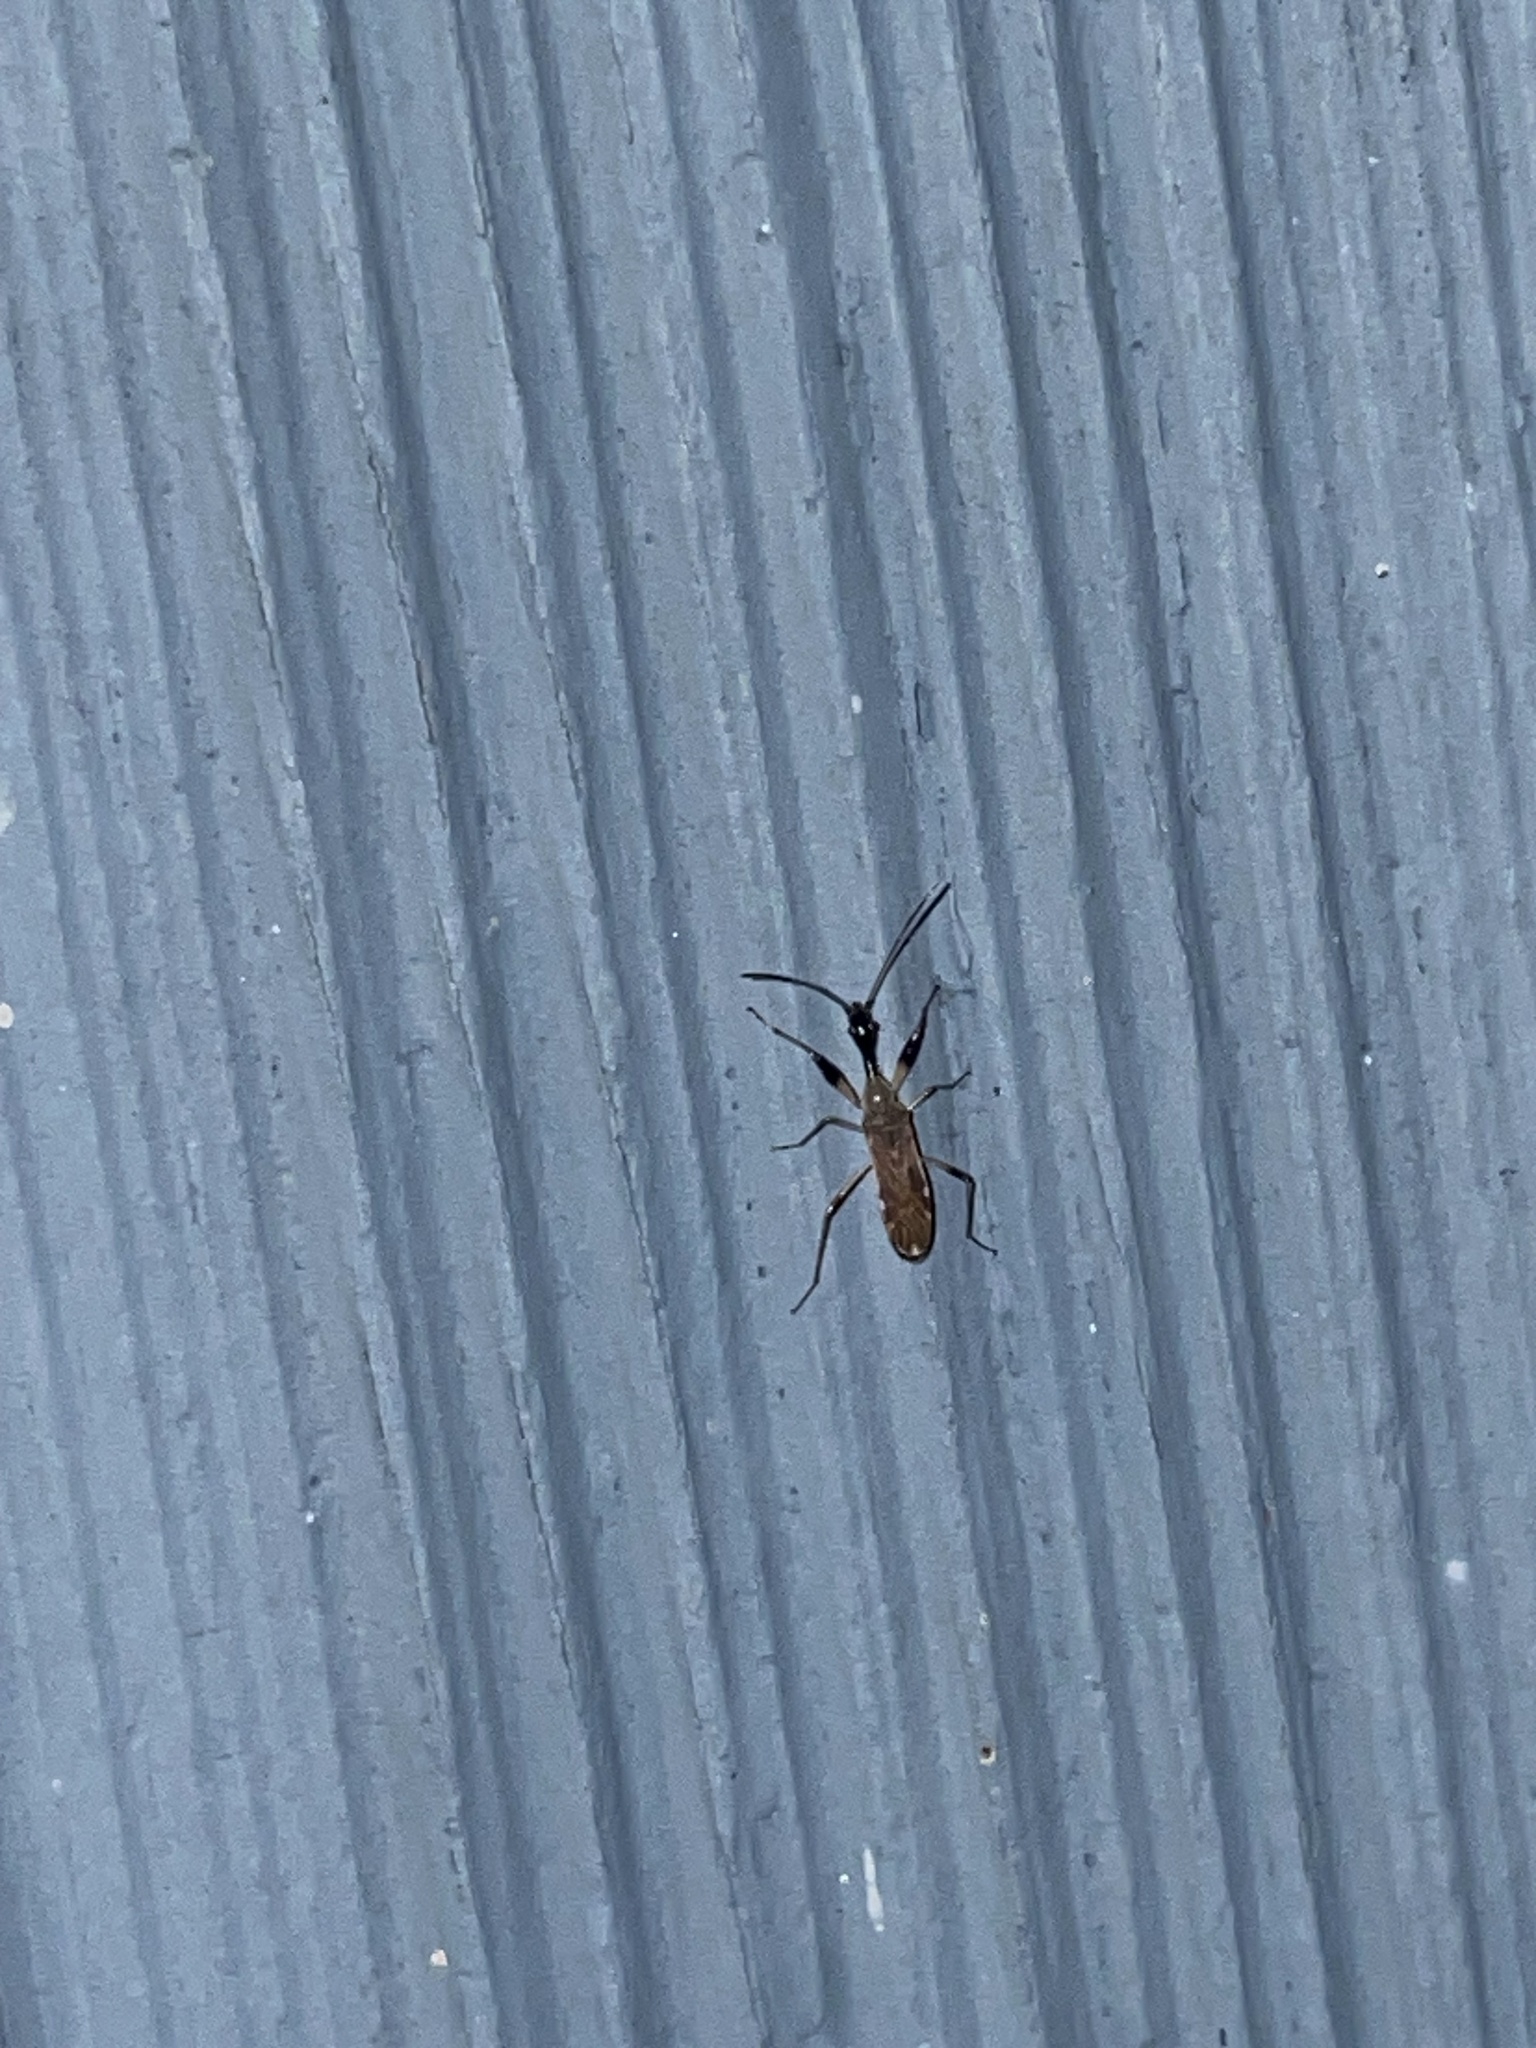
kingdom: Animalia
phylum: Arthropoda
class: Insecta
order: Hemiptera
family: Rhyparochromidae
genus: Myodocha
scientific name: Myodocha serripes
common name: Long-necked seed bug
